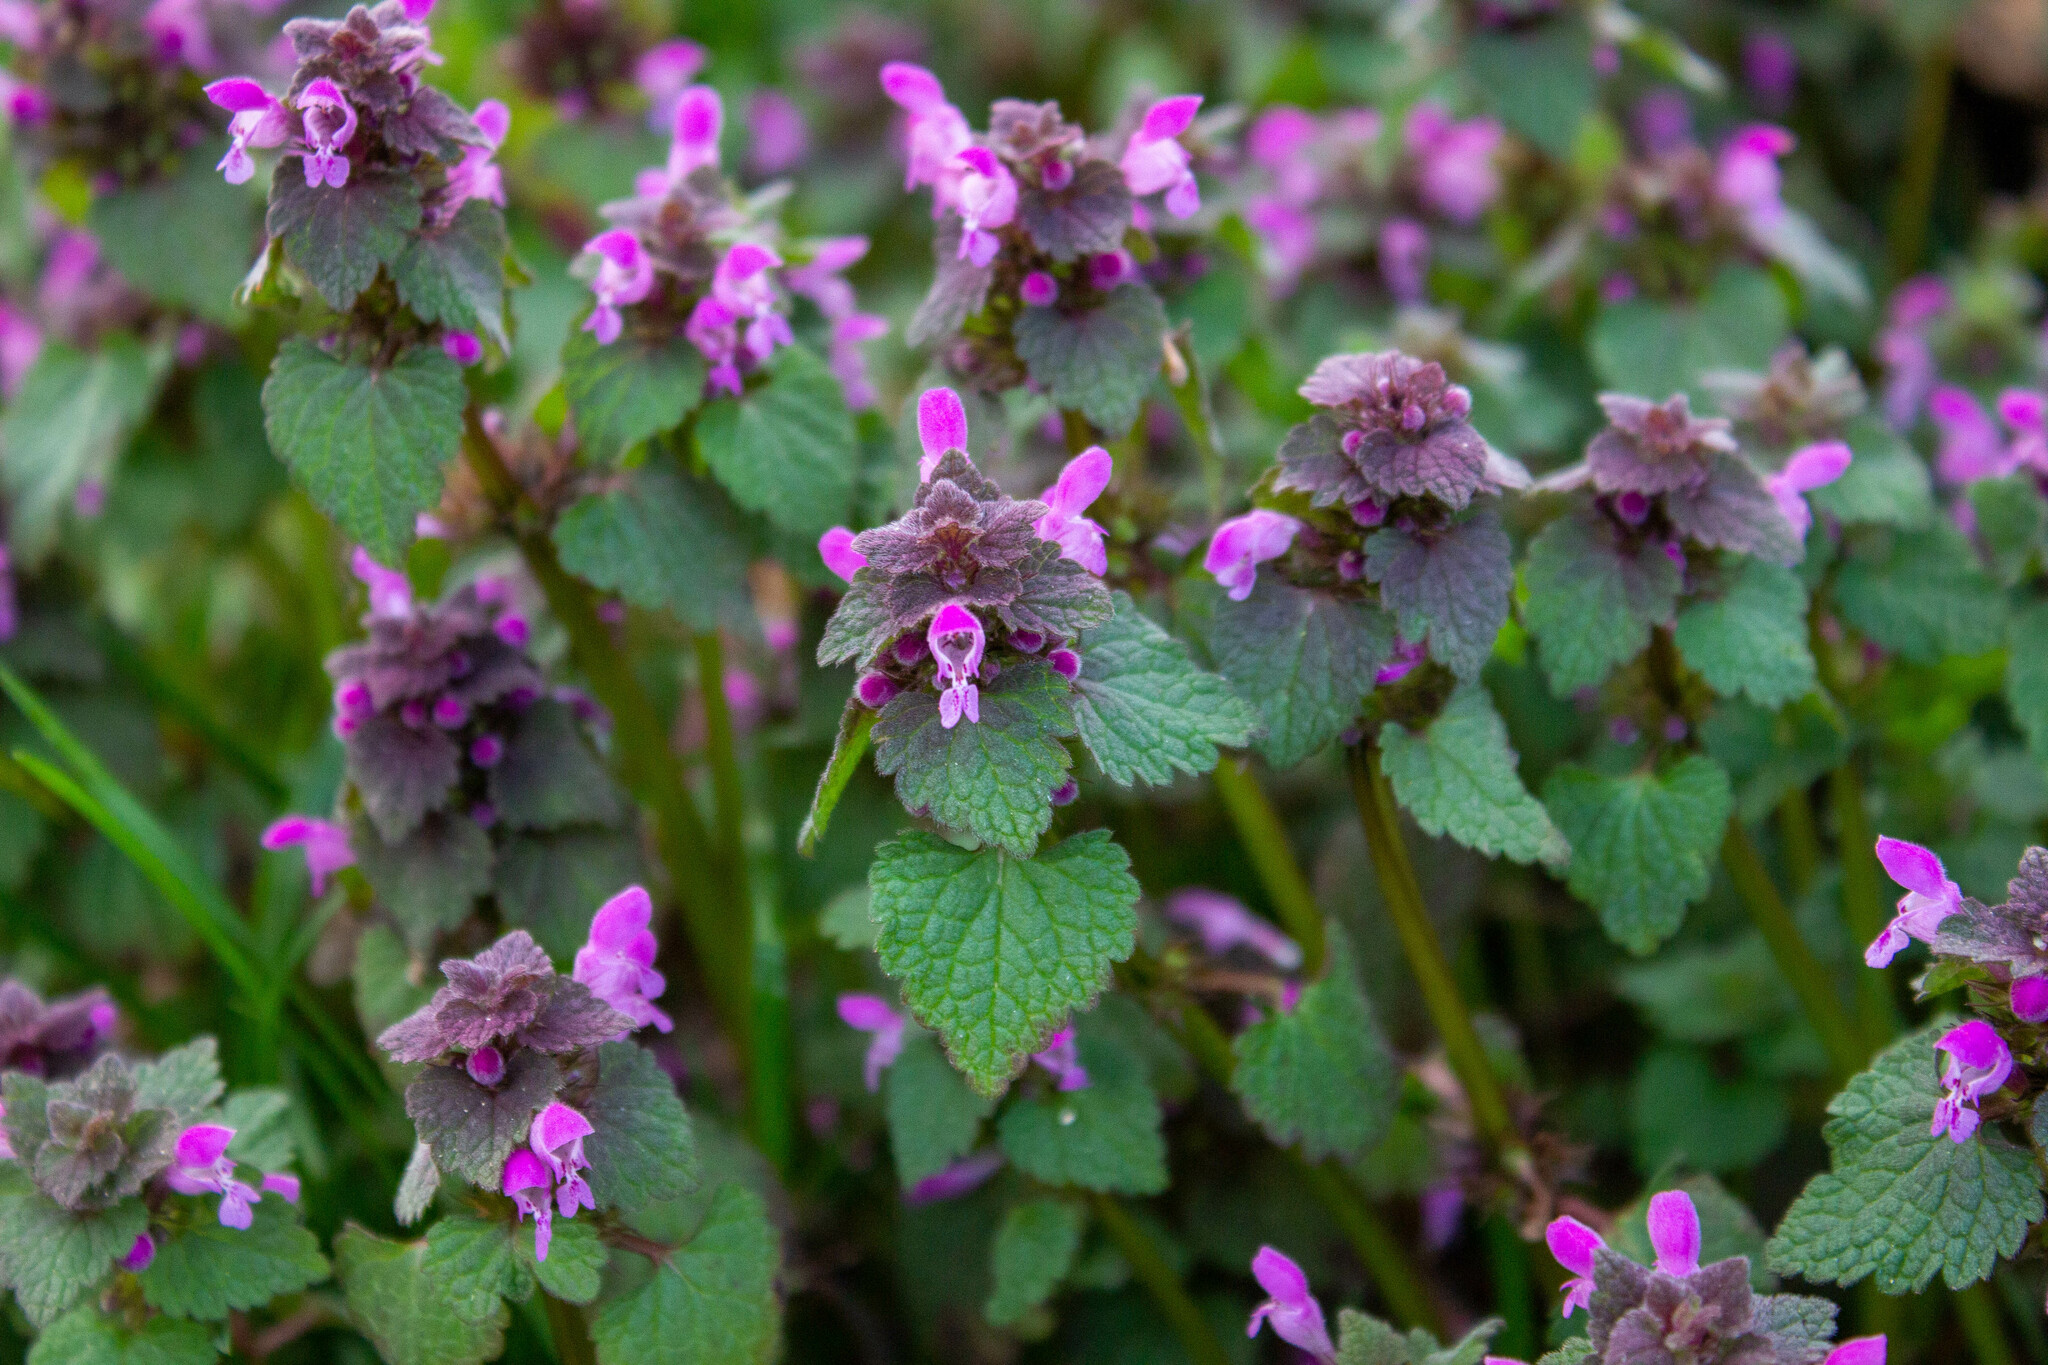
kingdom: Plantae
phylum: Tracheophyta
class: Magnoliopsida
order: Lamiales
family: Lamiaceae
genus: Lamium
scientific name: Lamium purpureum
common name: Red dead-nettle
